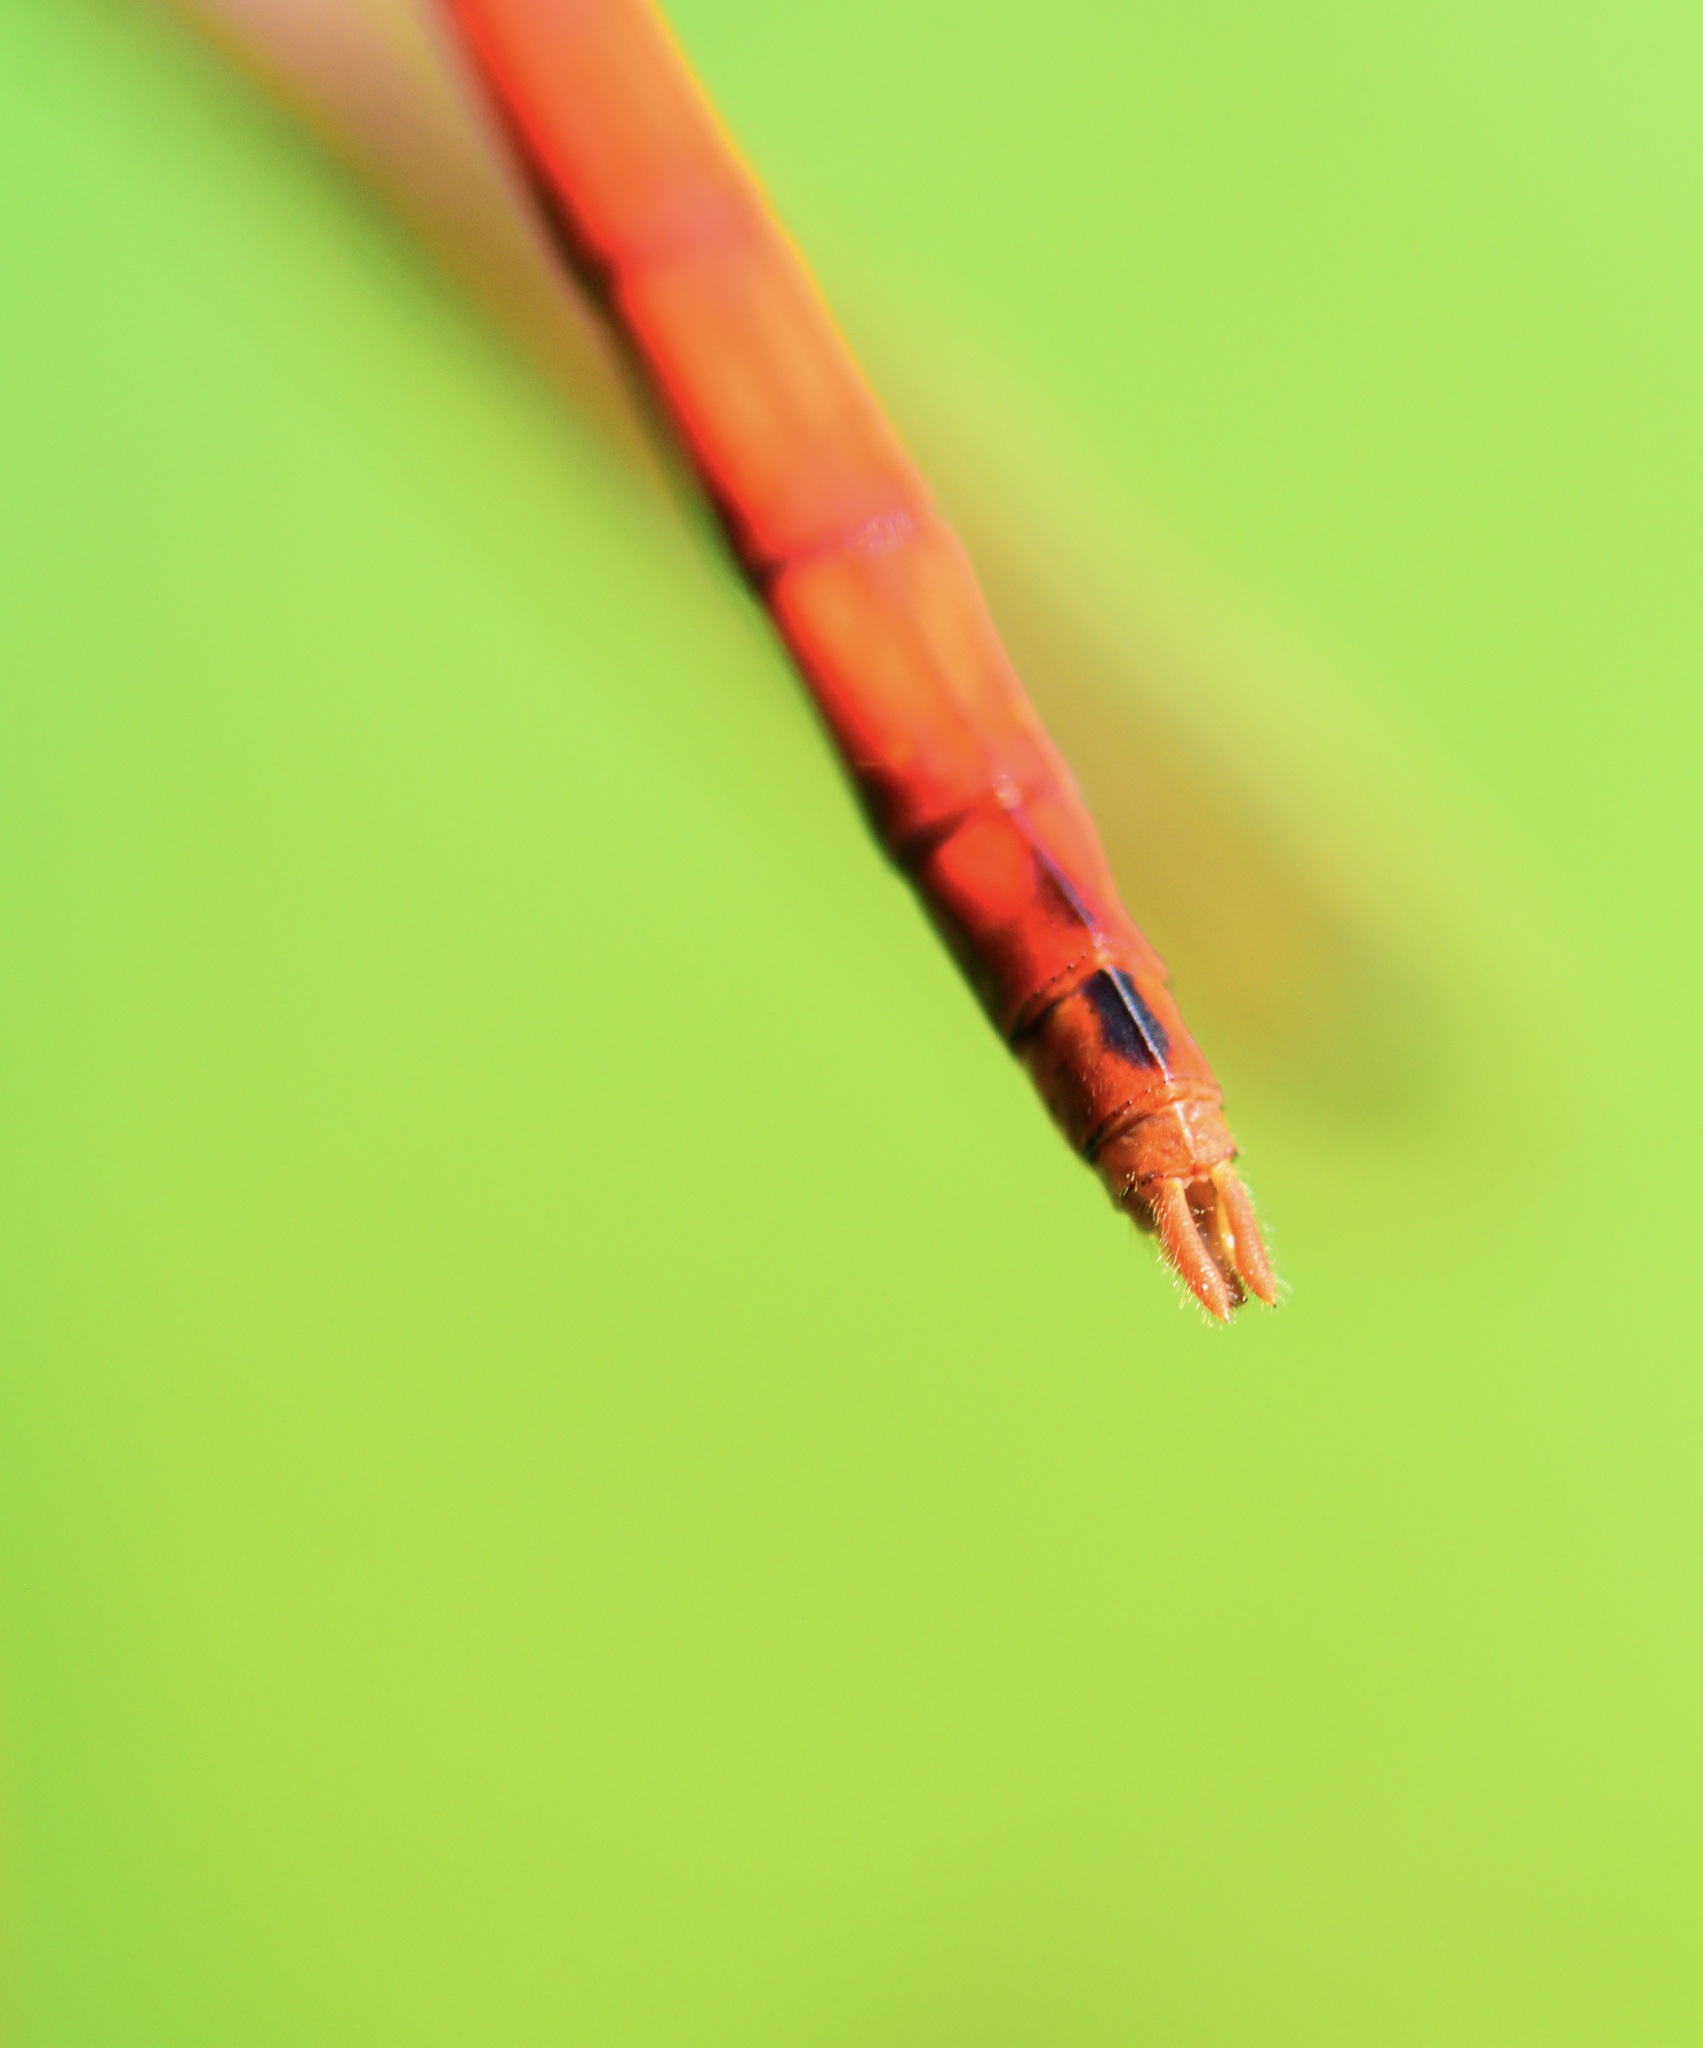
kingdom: Animalia
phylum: Arthropoda
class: Insecta
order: Odonata
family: Libellulidae
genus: Sympetrum
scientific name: Sympetrum vicinum
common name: Autumn meadowhawk
